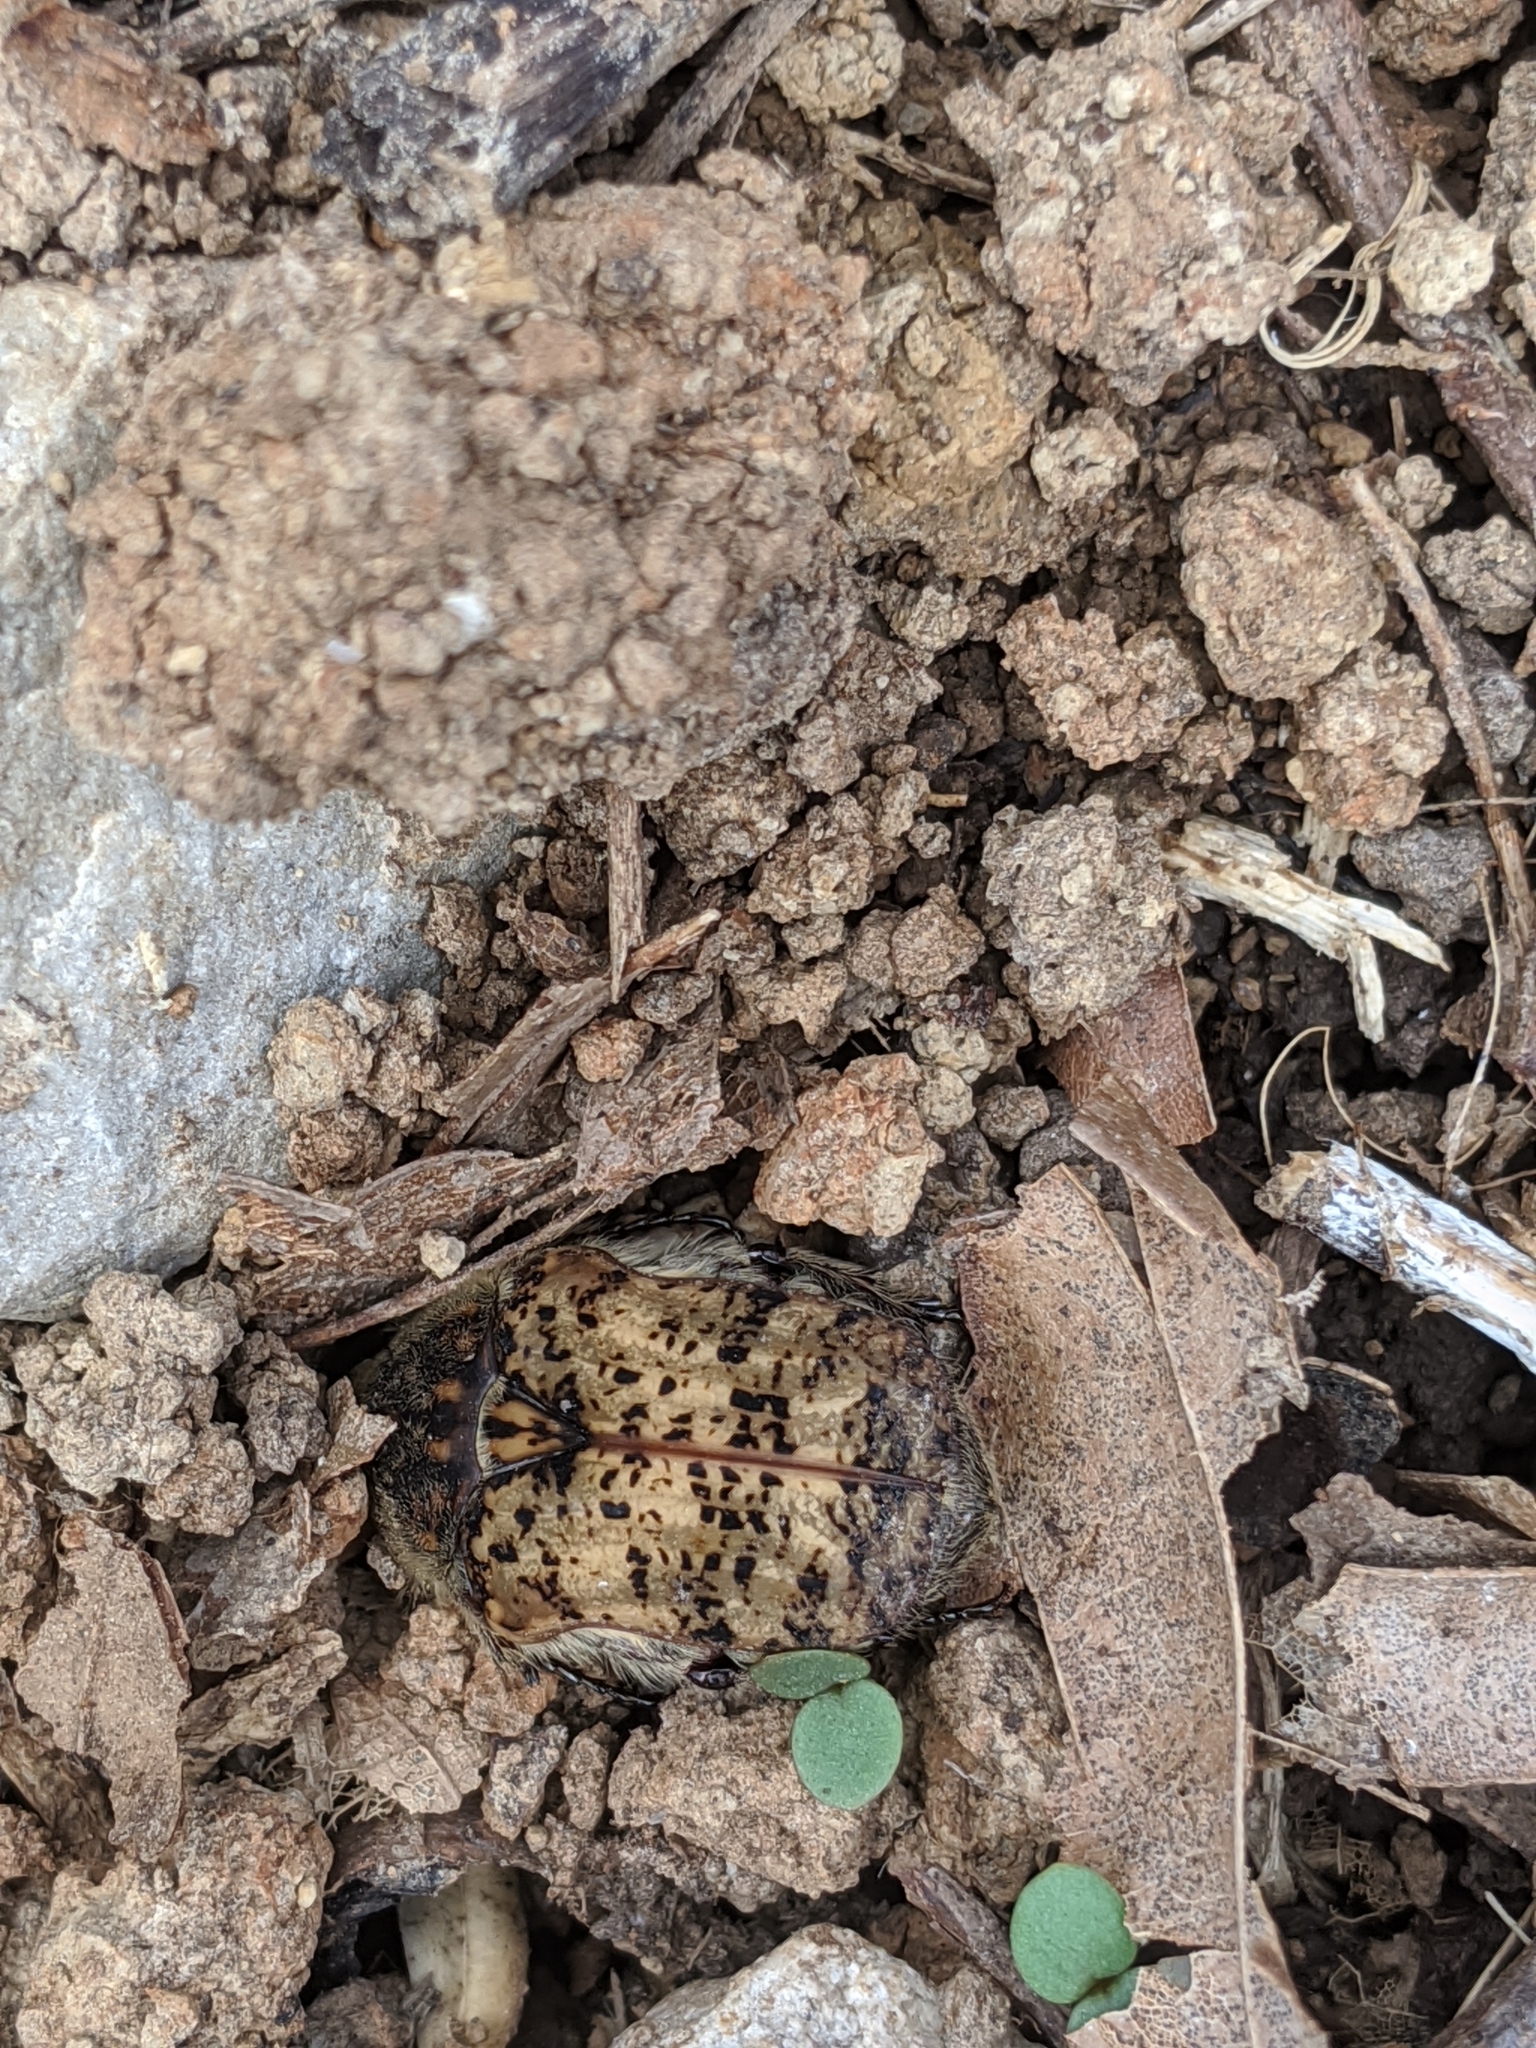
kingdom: Animalia
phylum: Arthropoda
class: Insecta
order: Coleoptera
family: Scarabaeidae
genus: Euphoria
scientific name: Euphoria inda
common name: Bumble flower beetle
